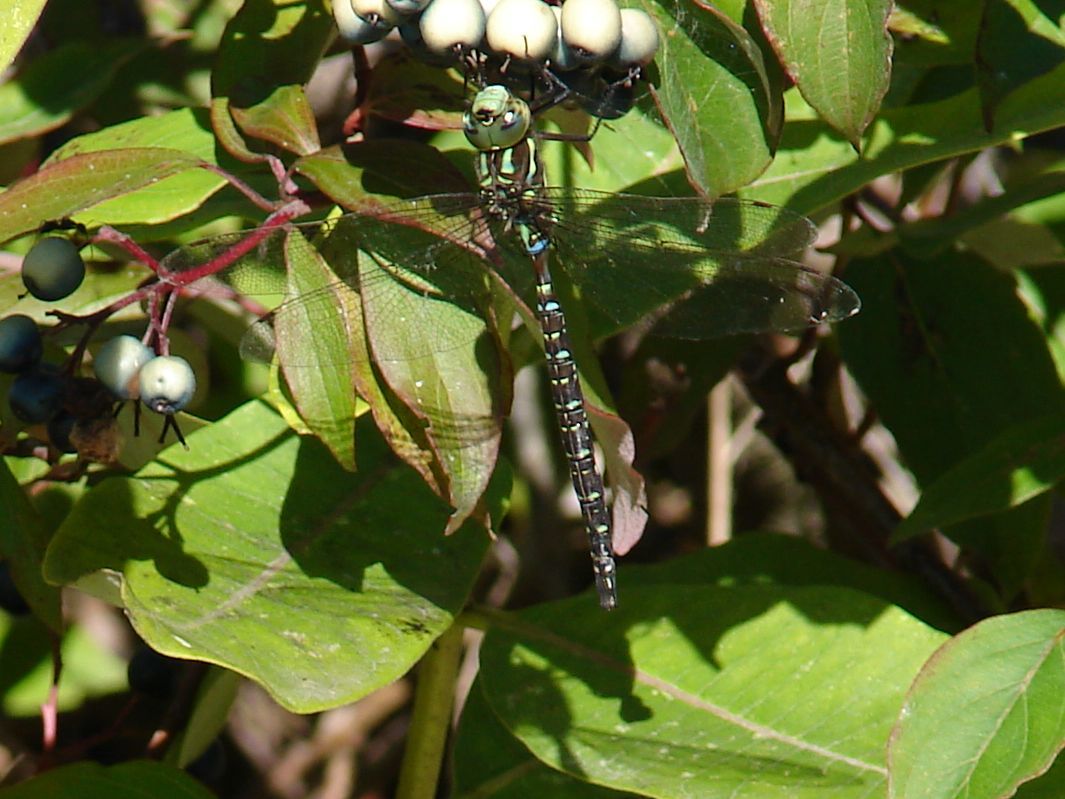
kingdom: Animalia
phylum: Arthropoda
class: Insecta
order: Odonata
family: Aeshnidae
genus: Aeshna
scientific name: Aeshna umbrosa
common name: Shadow darner
